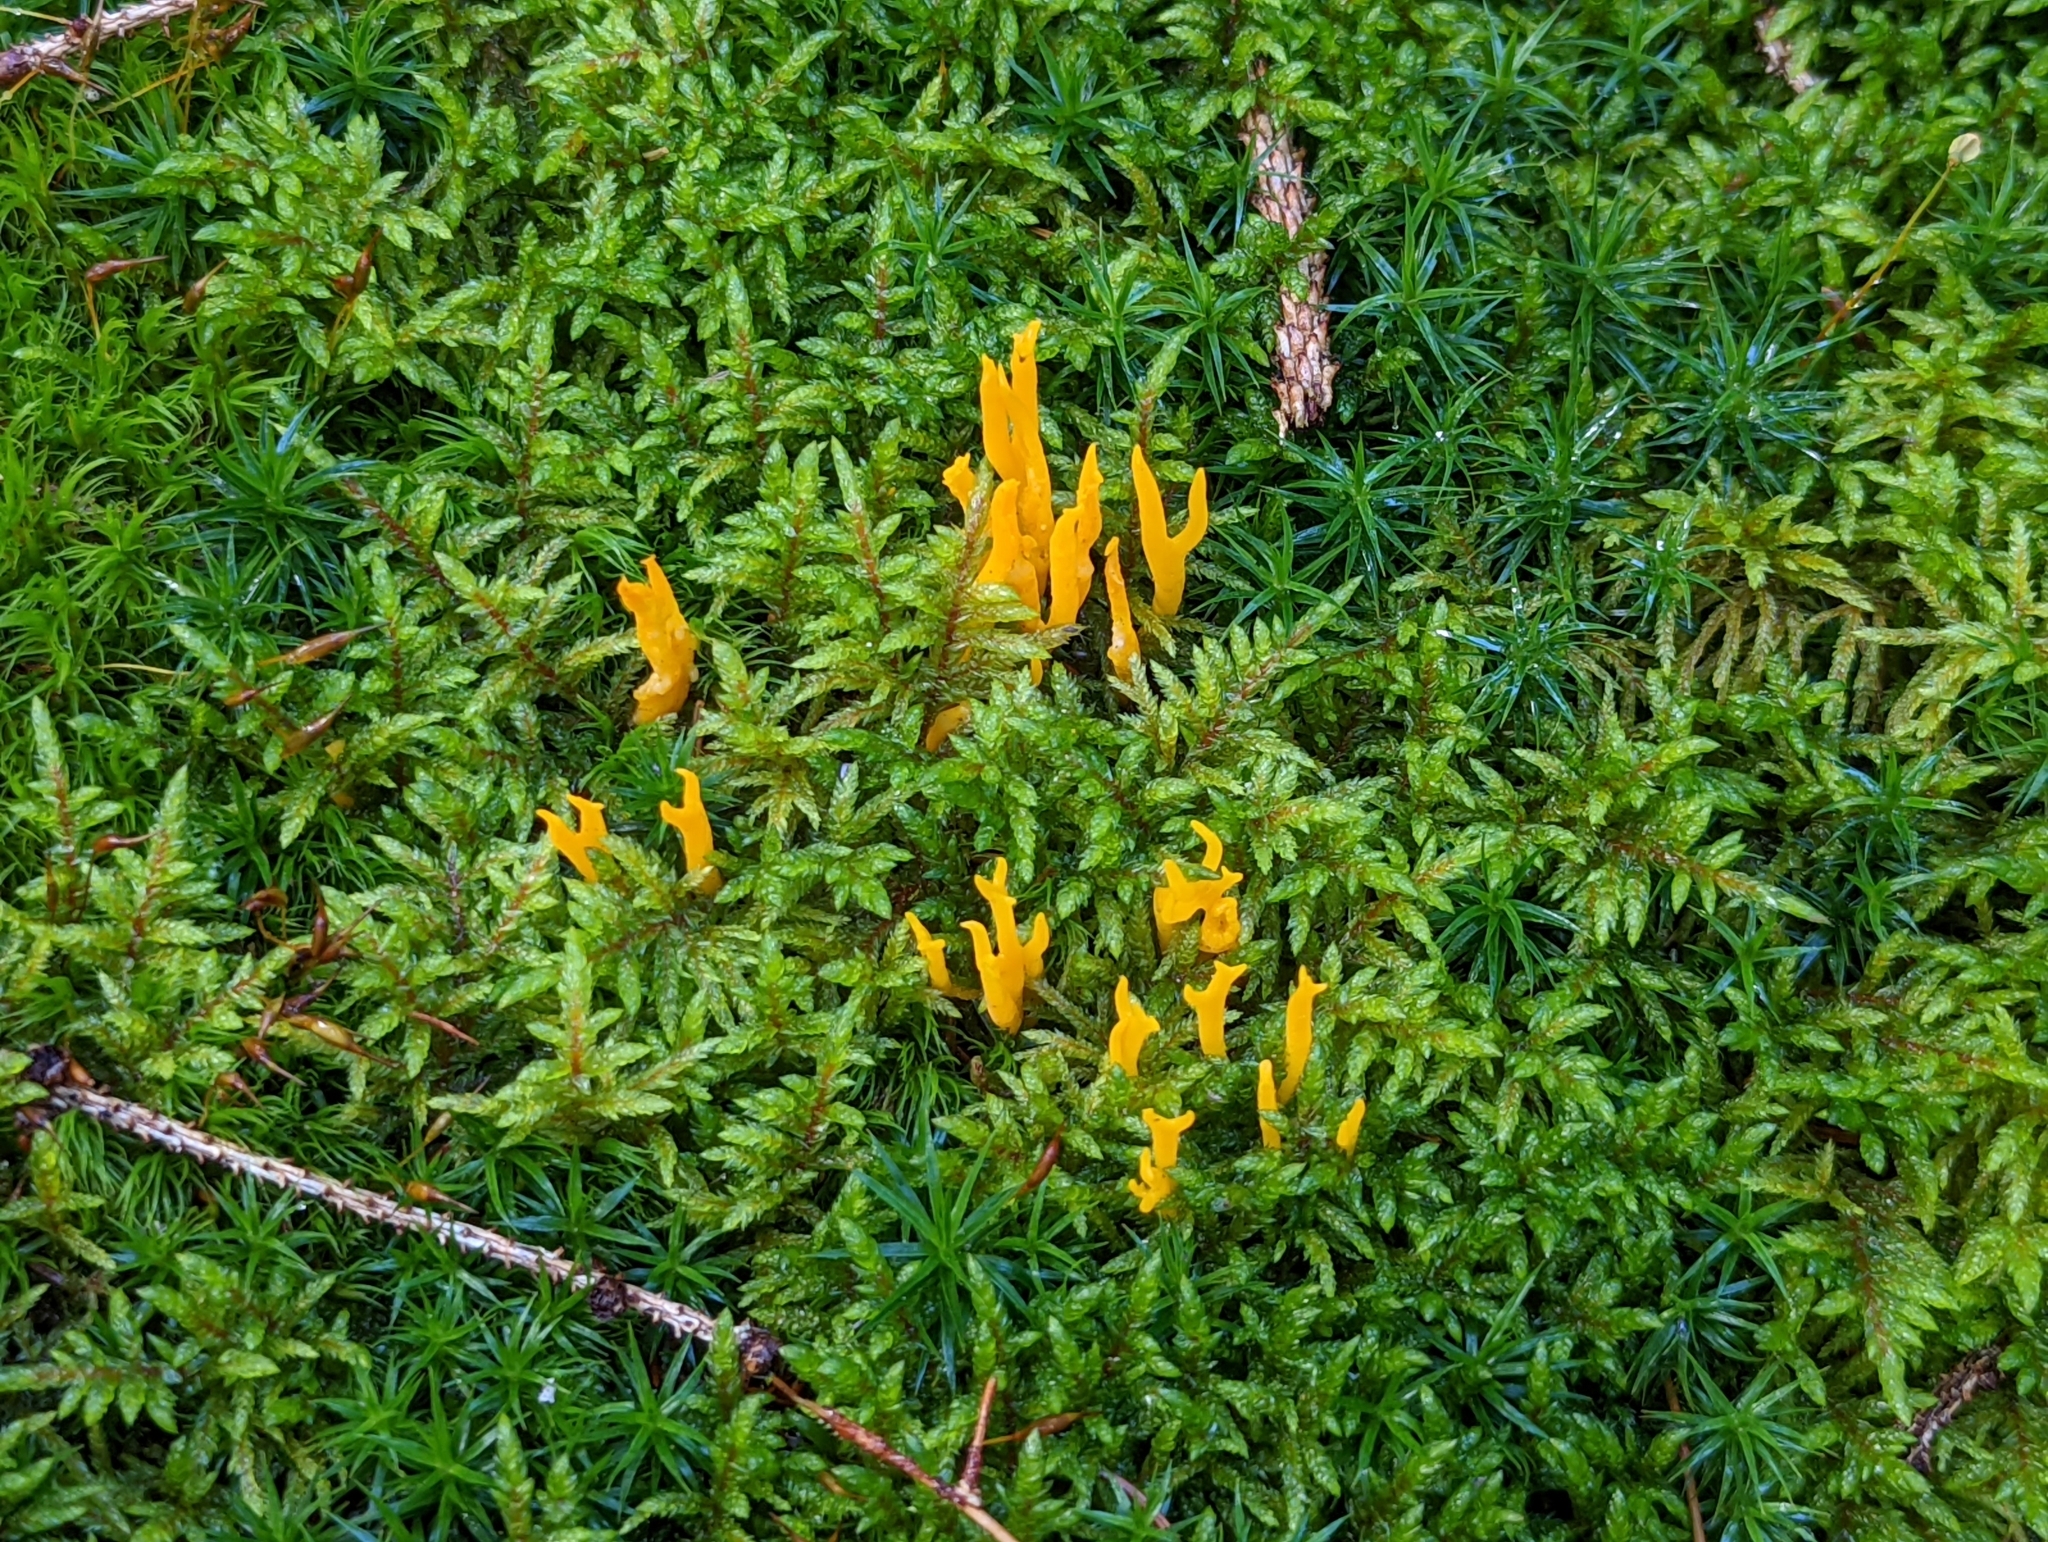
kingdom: Fungi
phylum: Basidiomycota
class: Dacrymycetes
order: Dacrymycetales
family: Dacrymycetaceae
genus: Calocera
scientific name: Calocera viscosa
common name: Yellow stagshorn
